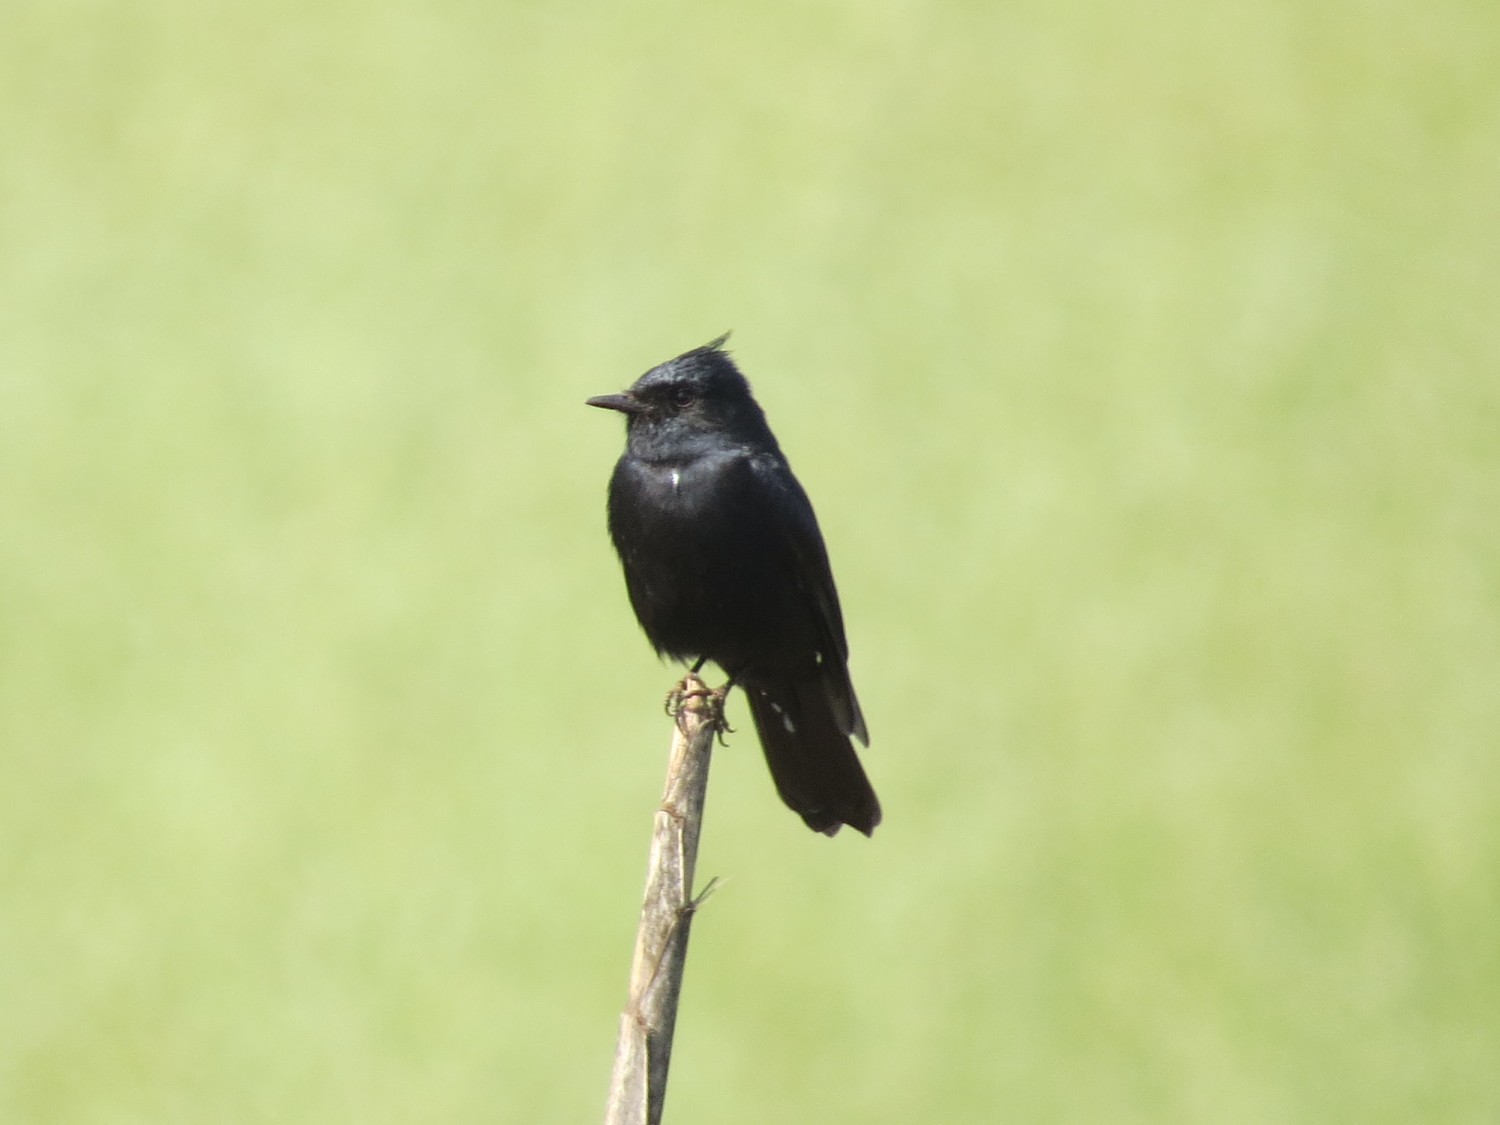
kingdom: Animalia
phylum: Chordata
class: Aves
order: Passeriformes
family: Tyrannidae
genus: Knipolegus
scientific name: Knipolegus lophotes
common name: Crested black tyrant
